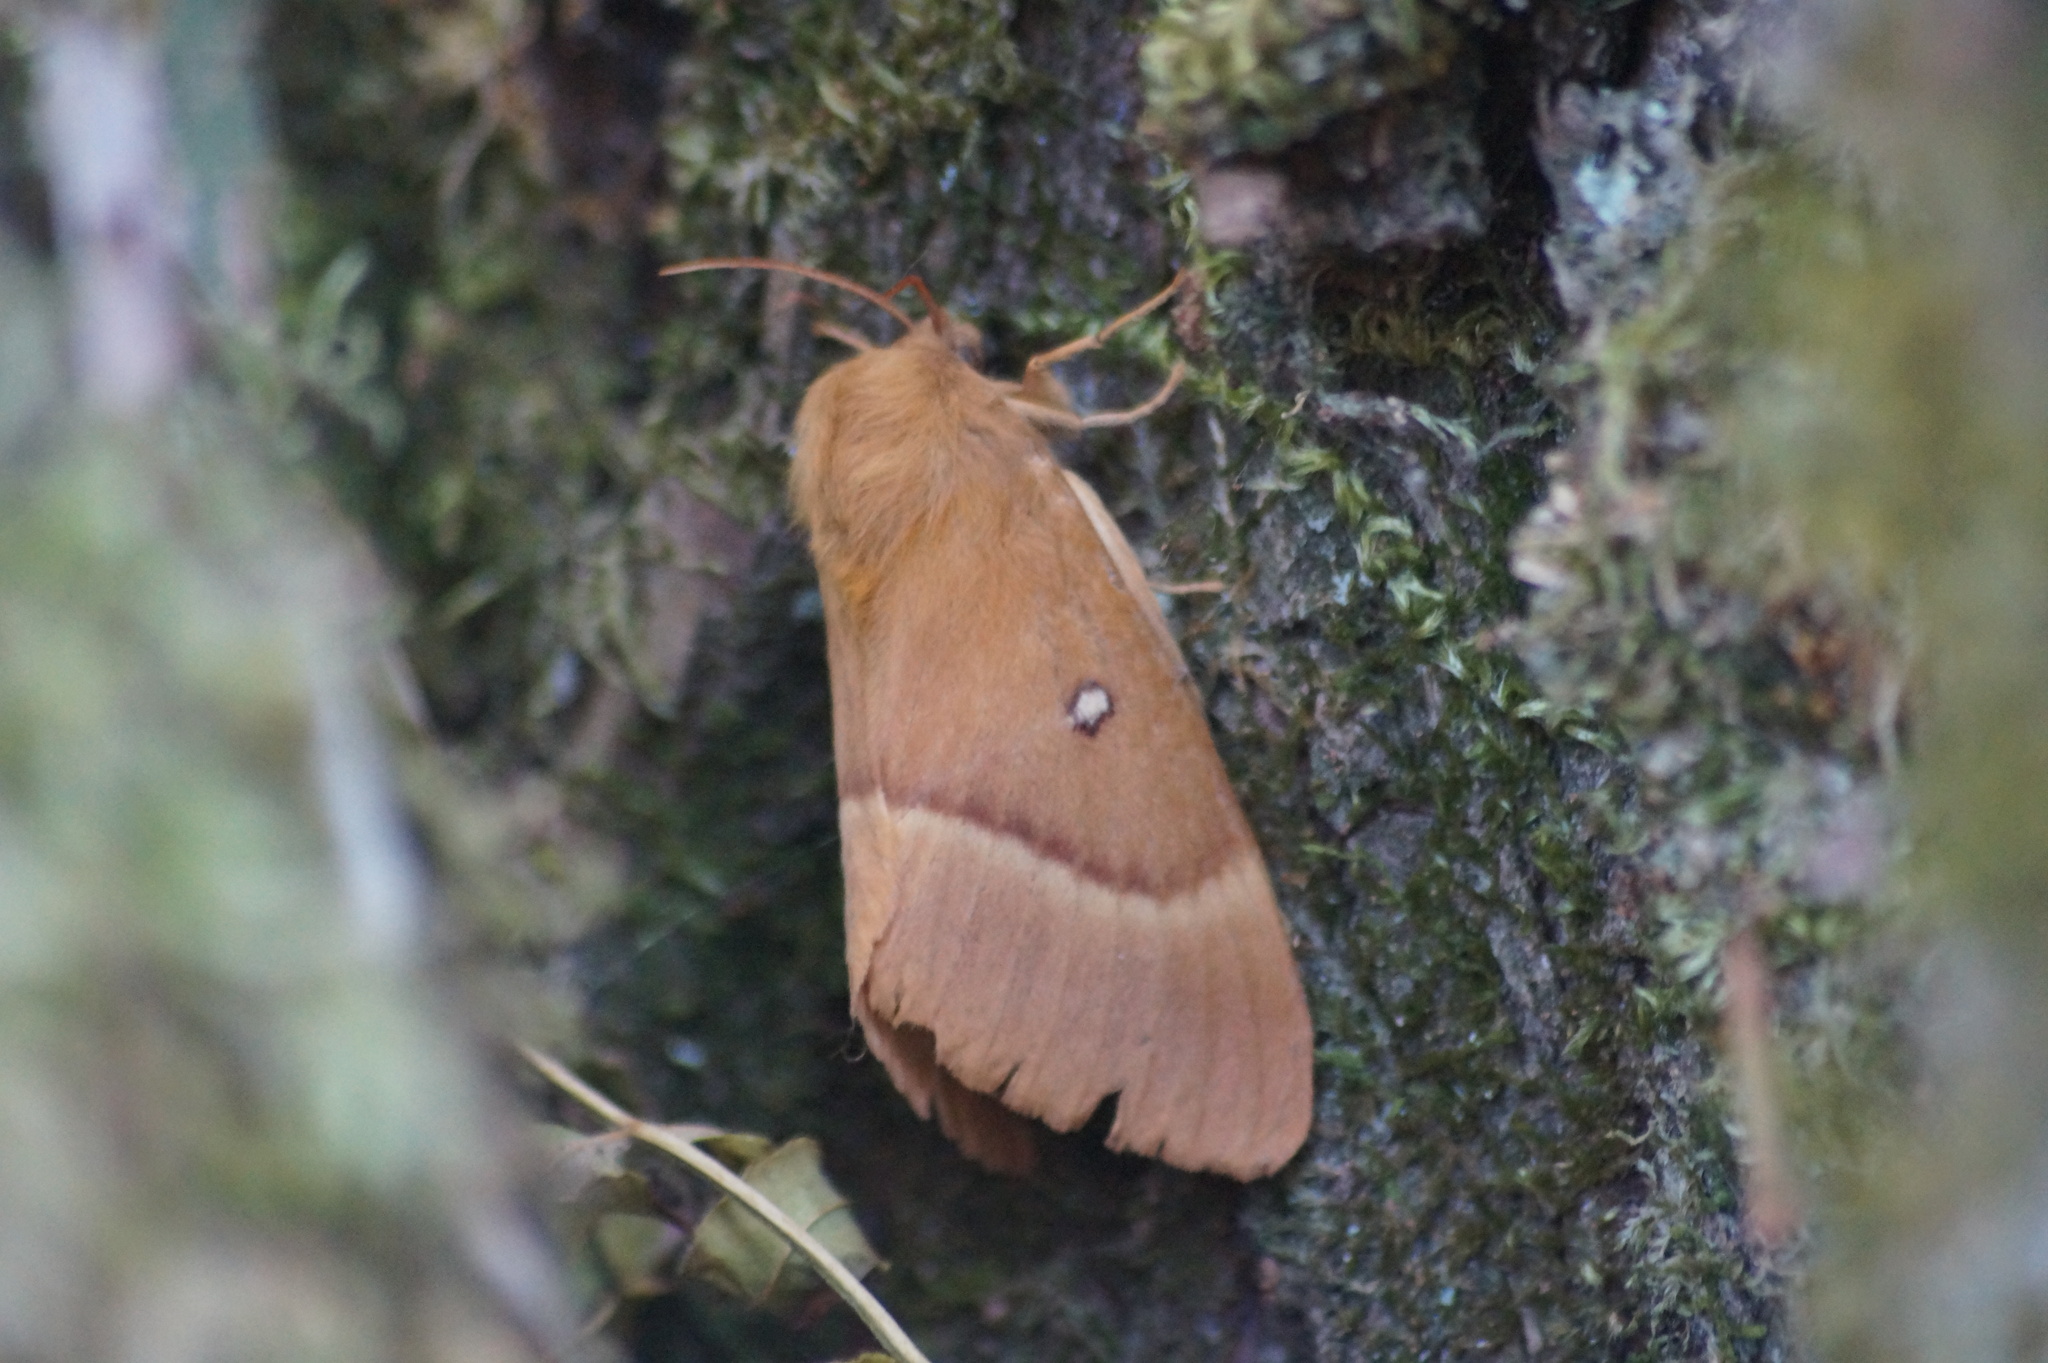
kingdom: Animalia
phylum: Arthropoda
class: Insecta
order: Lepidoptera
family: Lasiocampidae
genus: Lasiocampa
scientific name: Lasiocampa quercus
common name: Oak eggar
